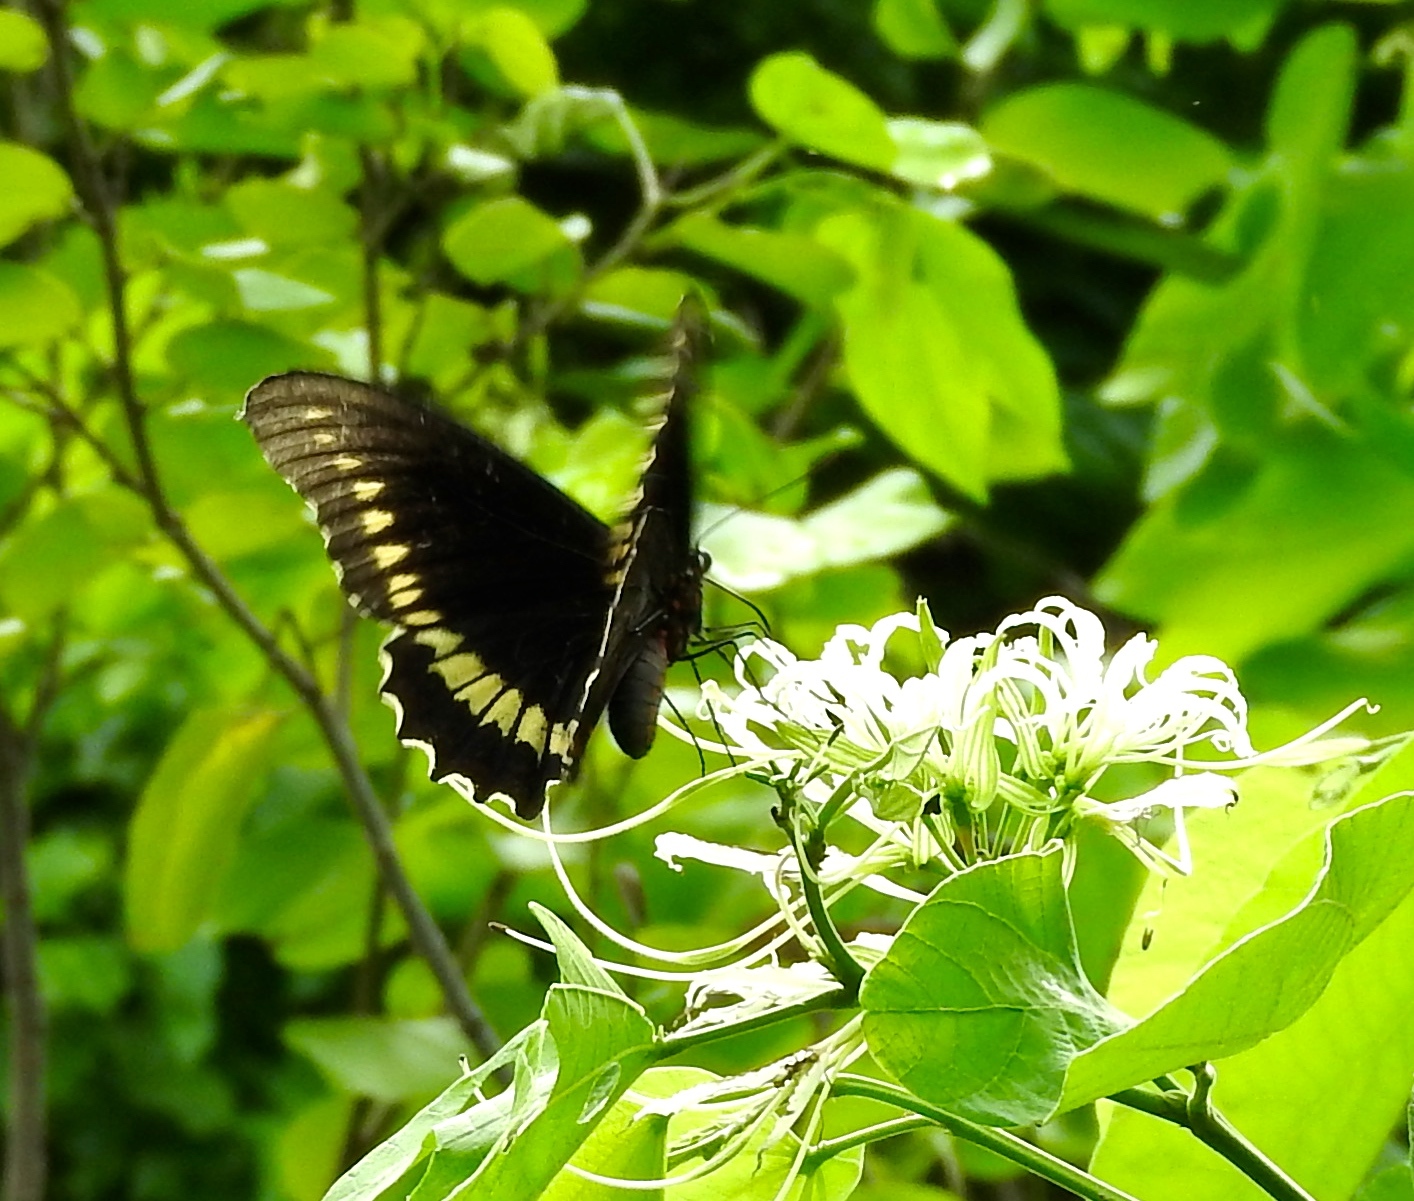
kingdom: Animalia
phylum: Arthropoda
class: Insecta
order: Lepidoptera
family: Papilionidae
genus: Battus
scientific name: Battus polydamas
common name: Polydamas swallowtail
